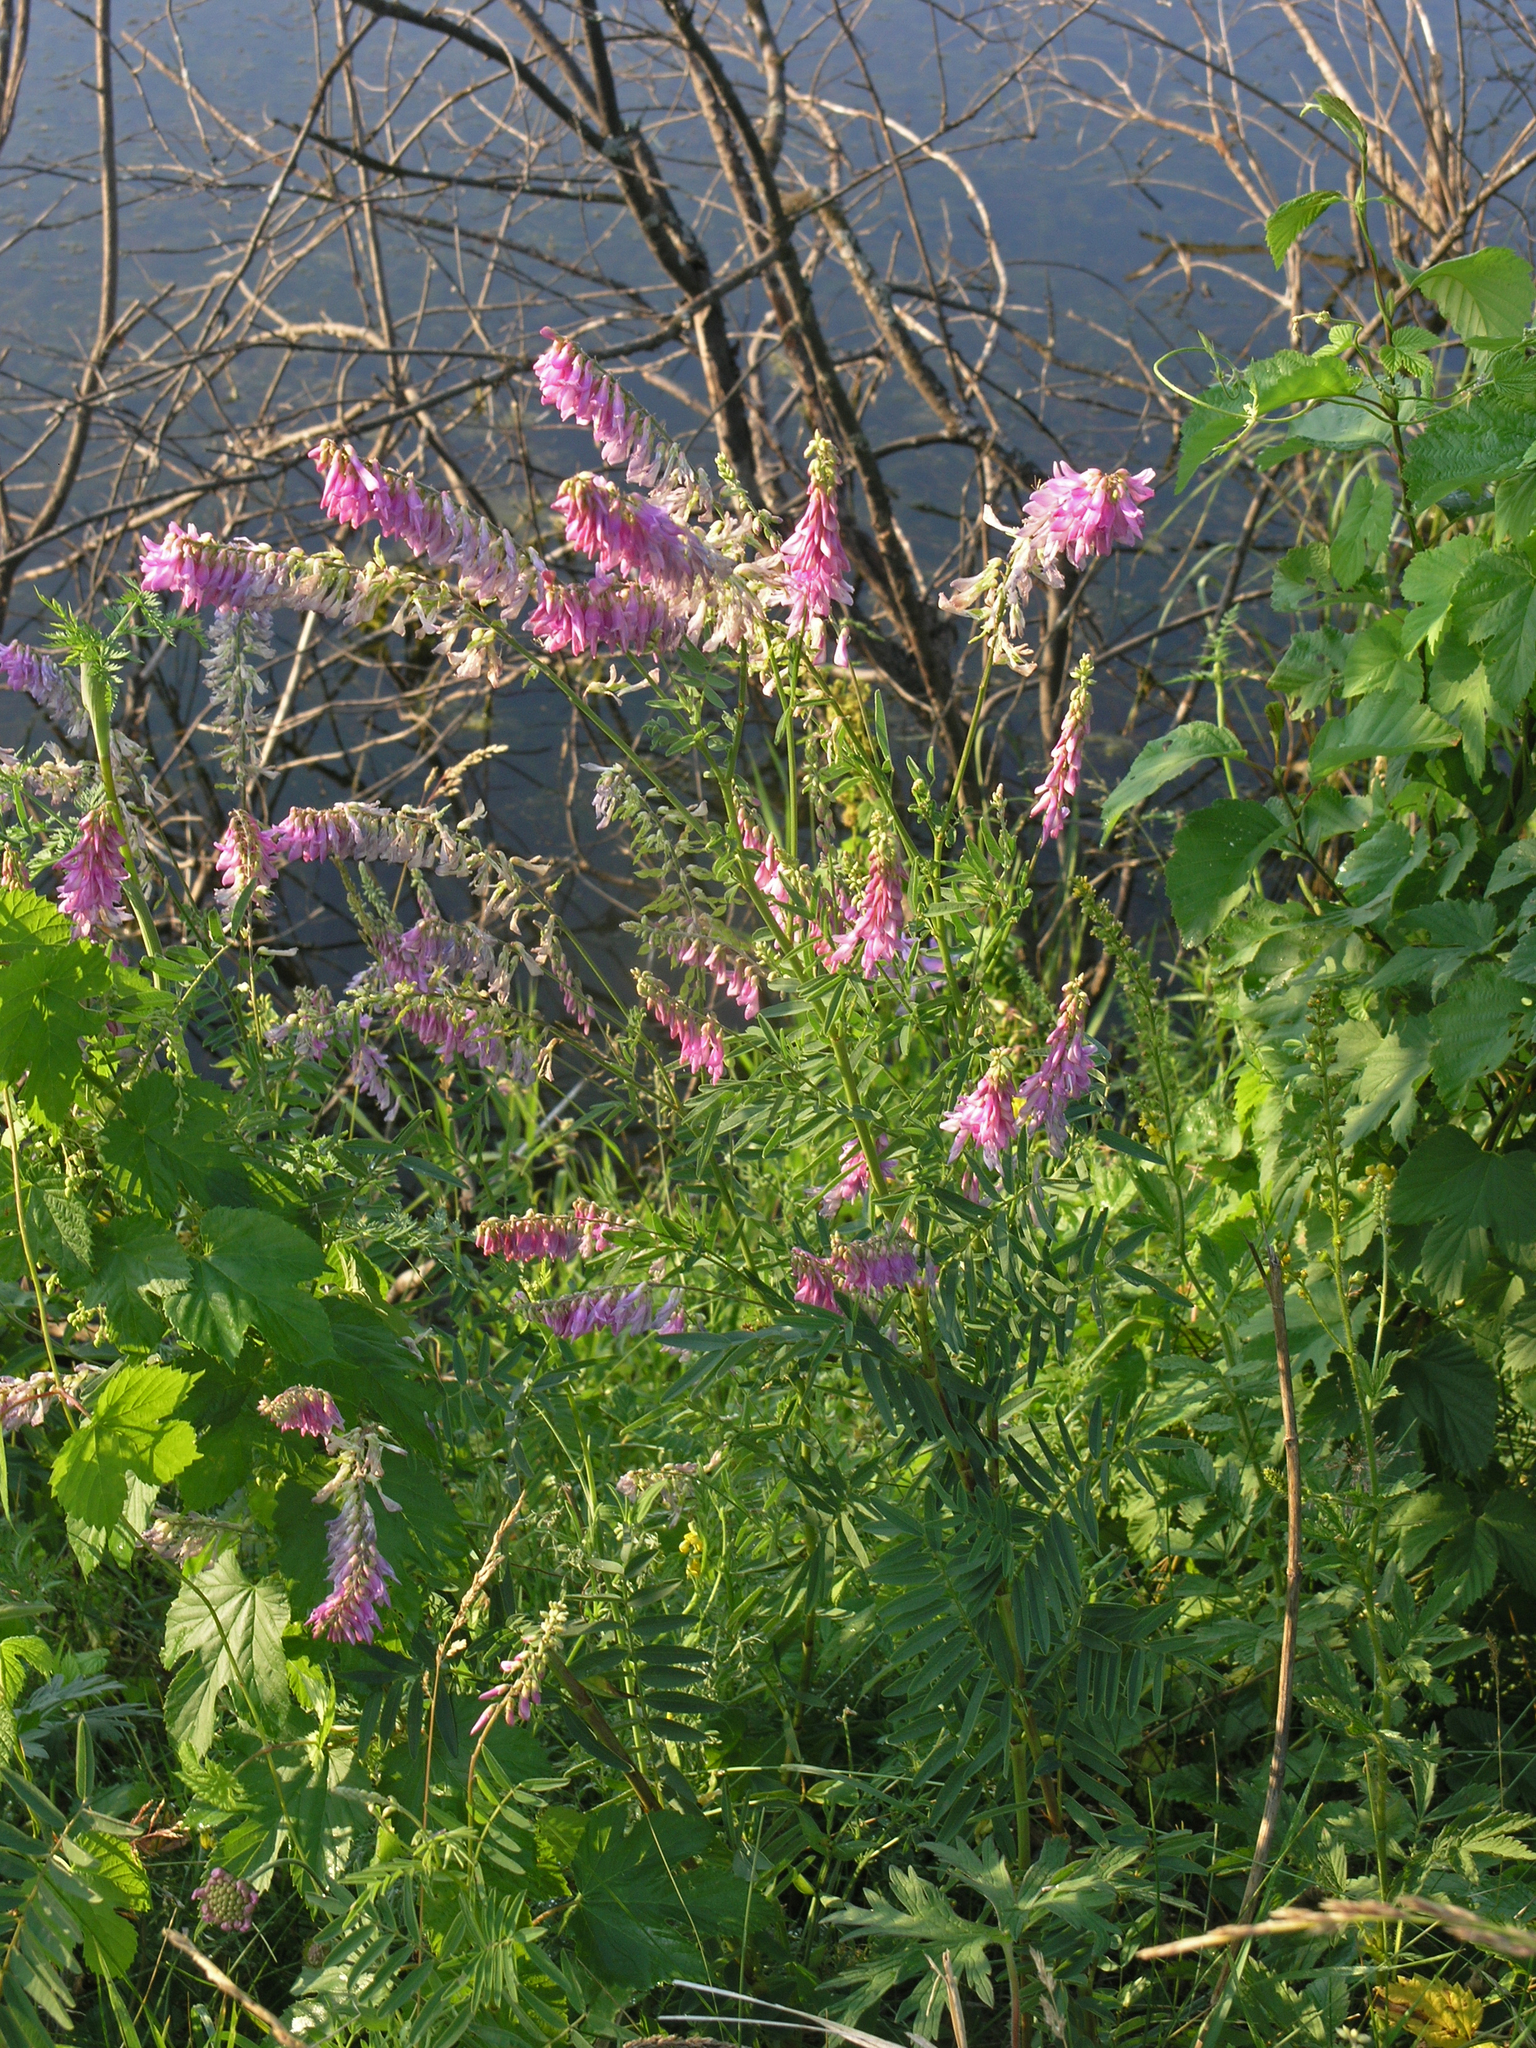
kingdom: Plantae
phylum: Tracheophyta
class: Magnoliopsida
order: Fabales
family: Fabaceae
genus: Hedysarum
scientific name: Hedysarum alpinum
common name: Alpine sweet-vetch
